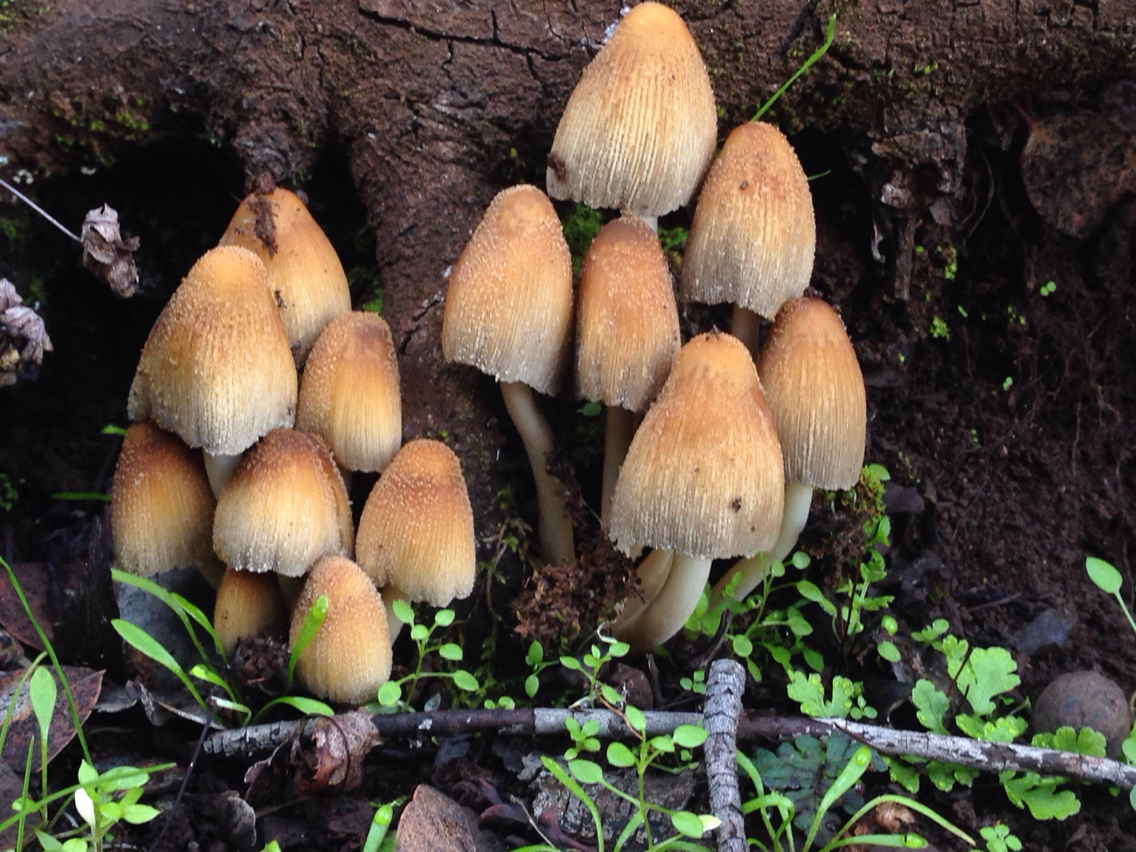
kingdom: Fungi
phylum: Basidiomycota
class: Agaricomycetes
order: Agaricales
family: Psathyrellaceae
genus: Coprinellus
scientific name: Coprinellus micaceus
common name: Glistening ink-cap
